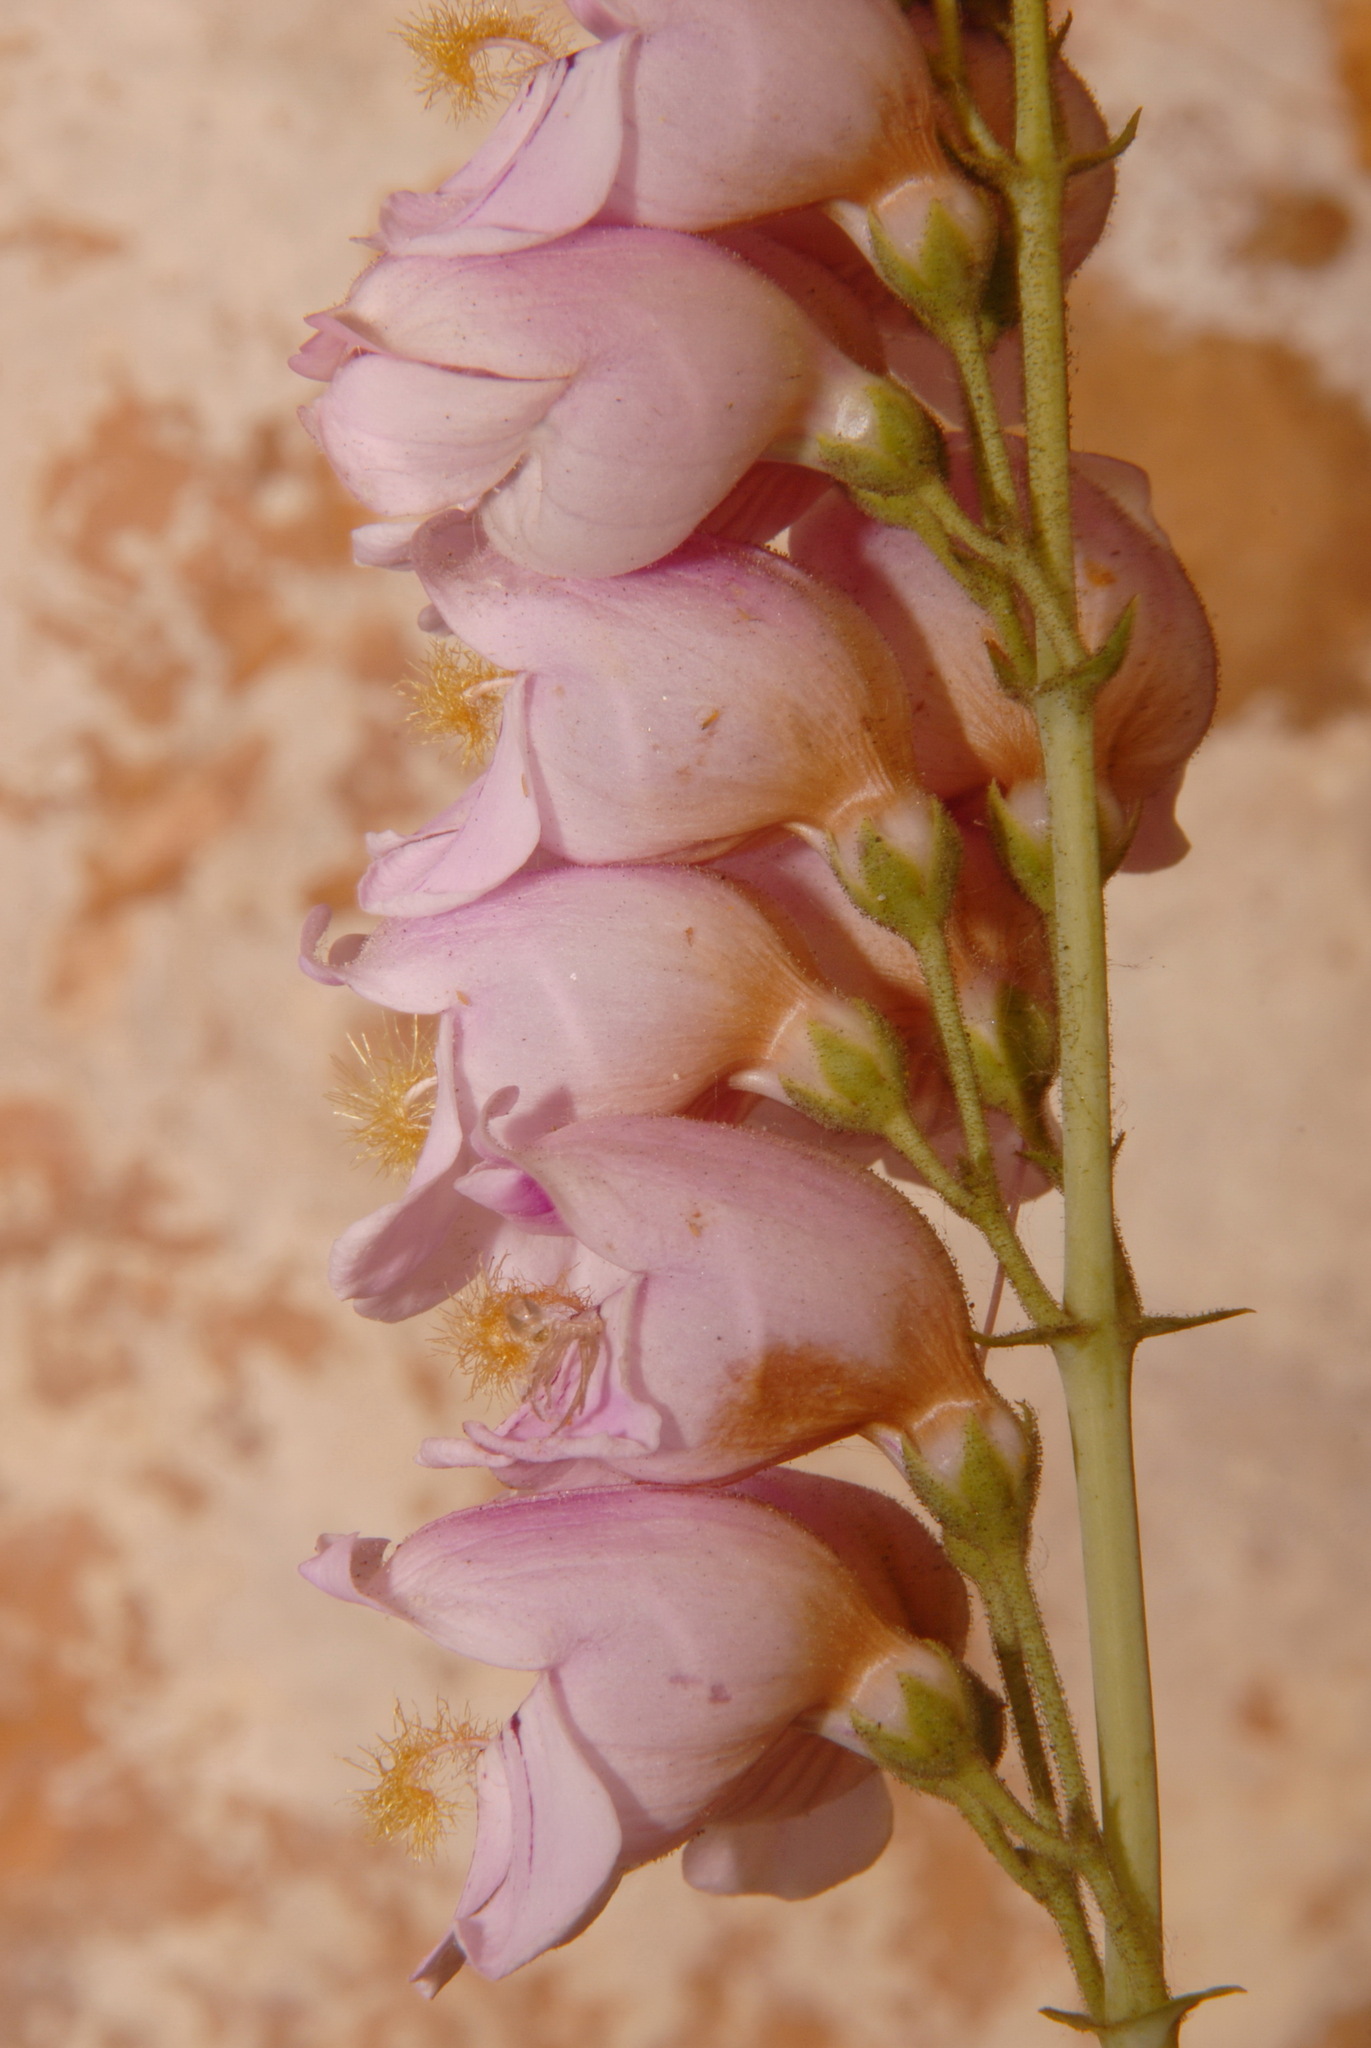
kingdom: Plantae
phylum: Tracheophyta
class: Magnoliopsida
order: Lamiales
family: Plantaginaceae
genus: Penstemon
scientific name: Penstemon palmeri
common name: Palmer penstemon
